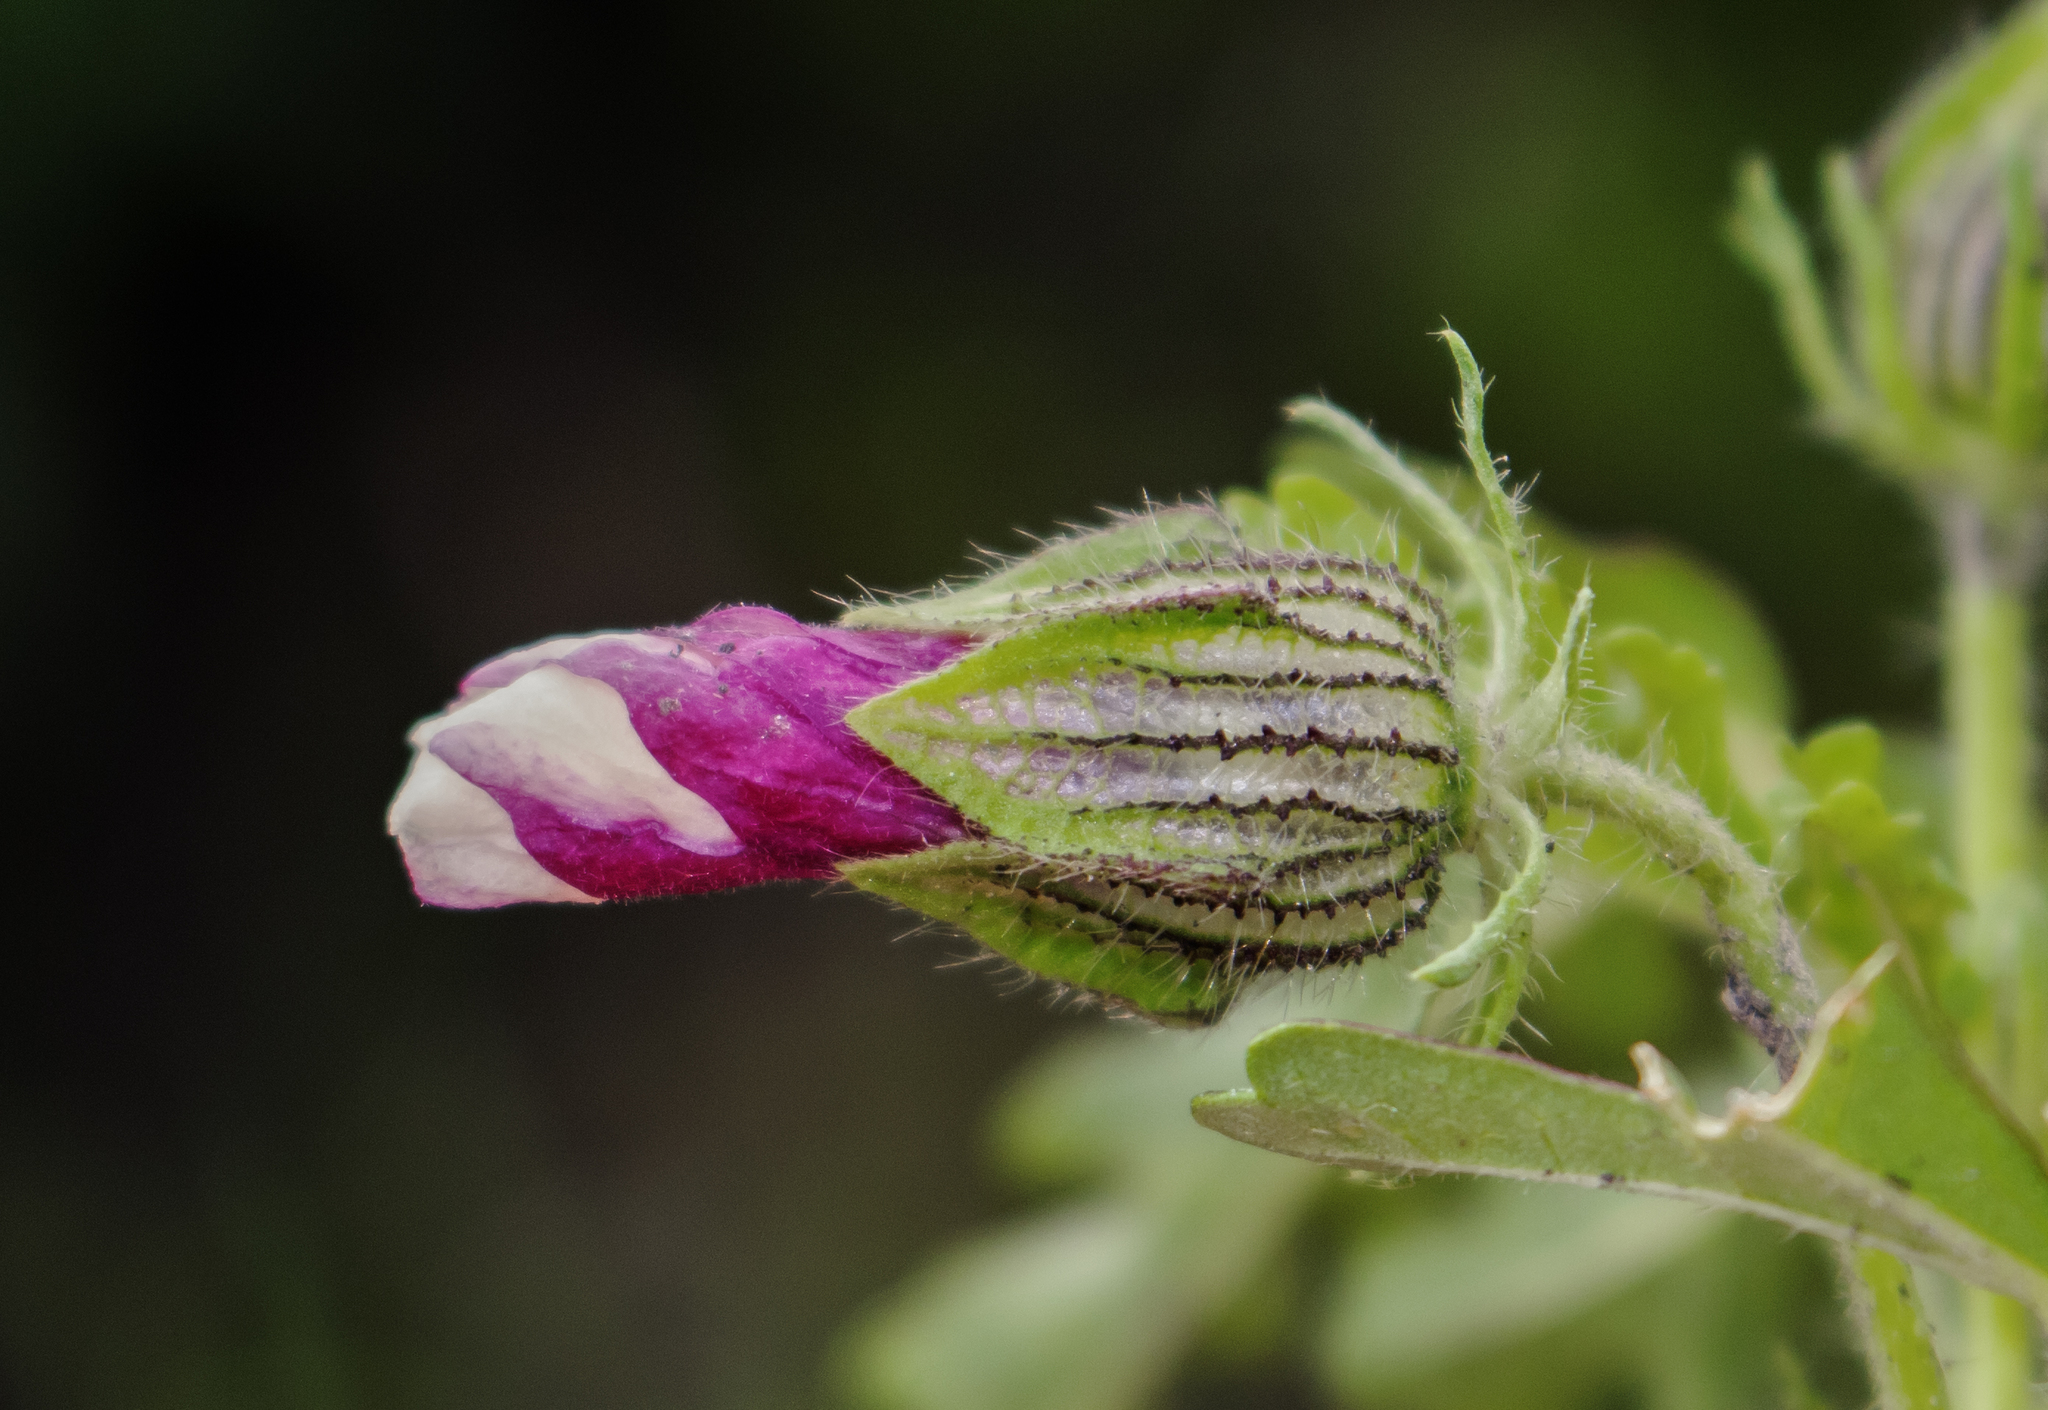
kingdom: Plantae
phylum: Tracheophyta
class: Magnoliopsida
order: Malvales
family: Malvaceae
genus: Hibiscus
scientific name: Hibiscus trionum
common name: Bladder ketmia
